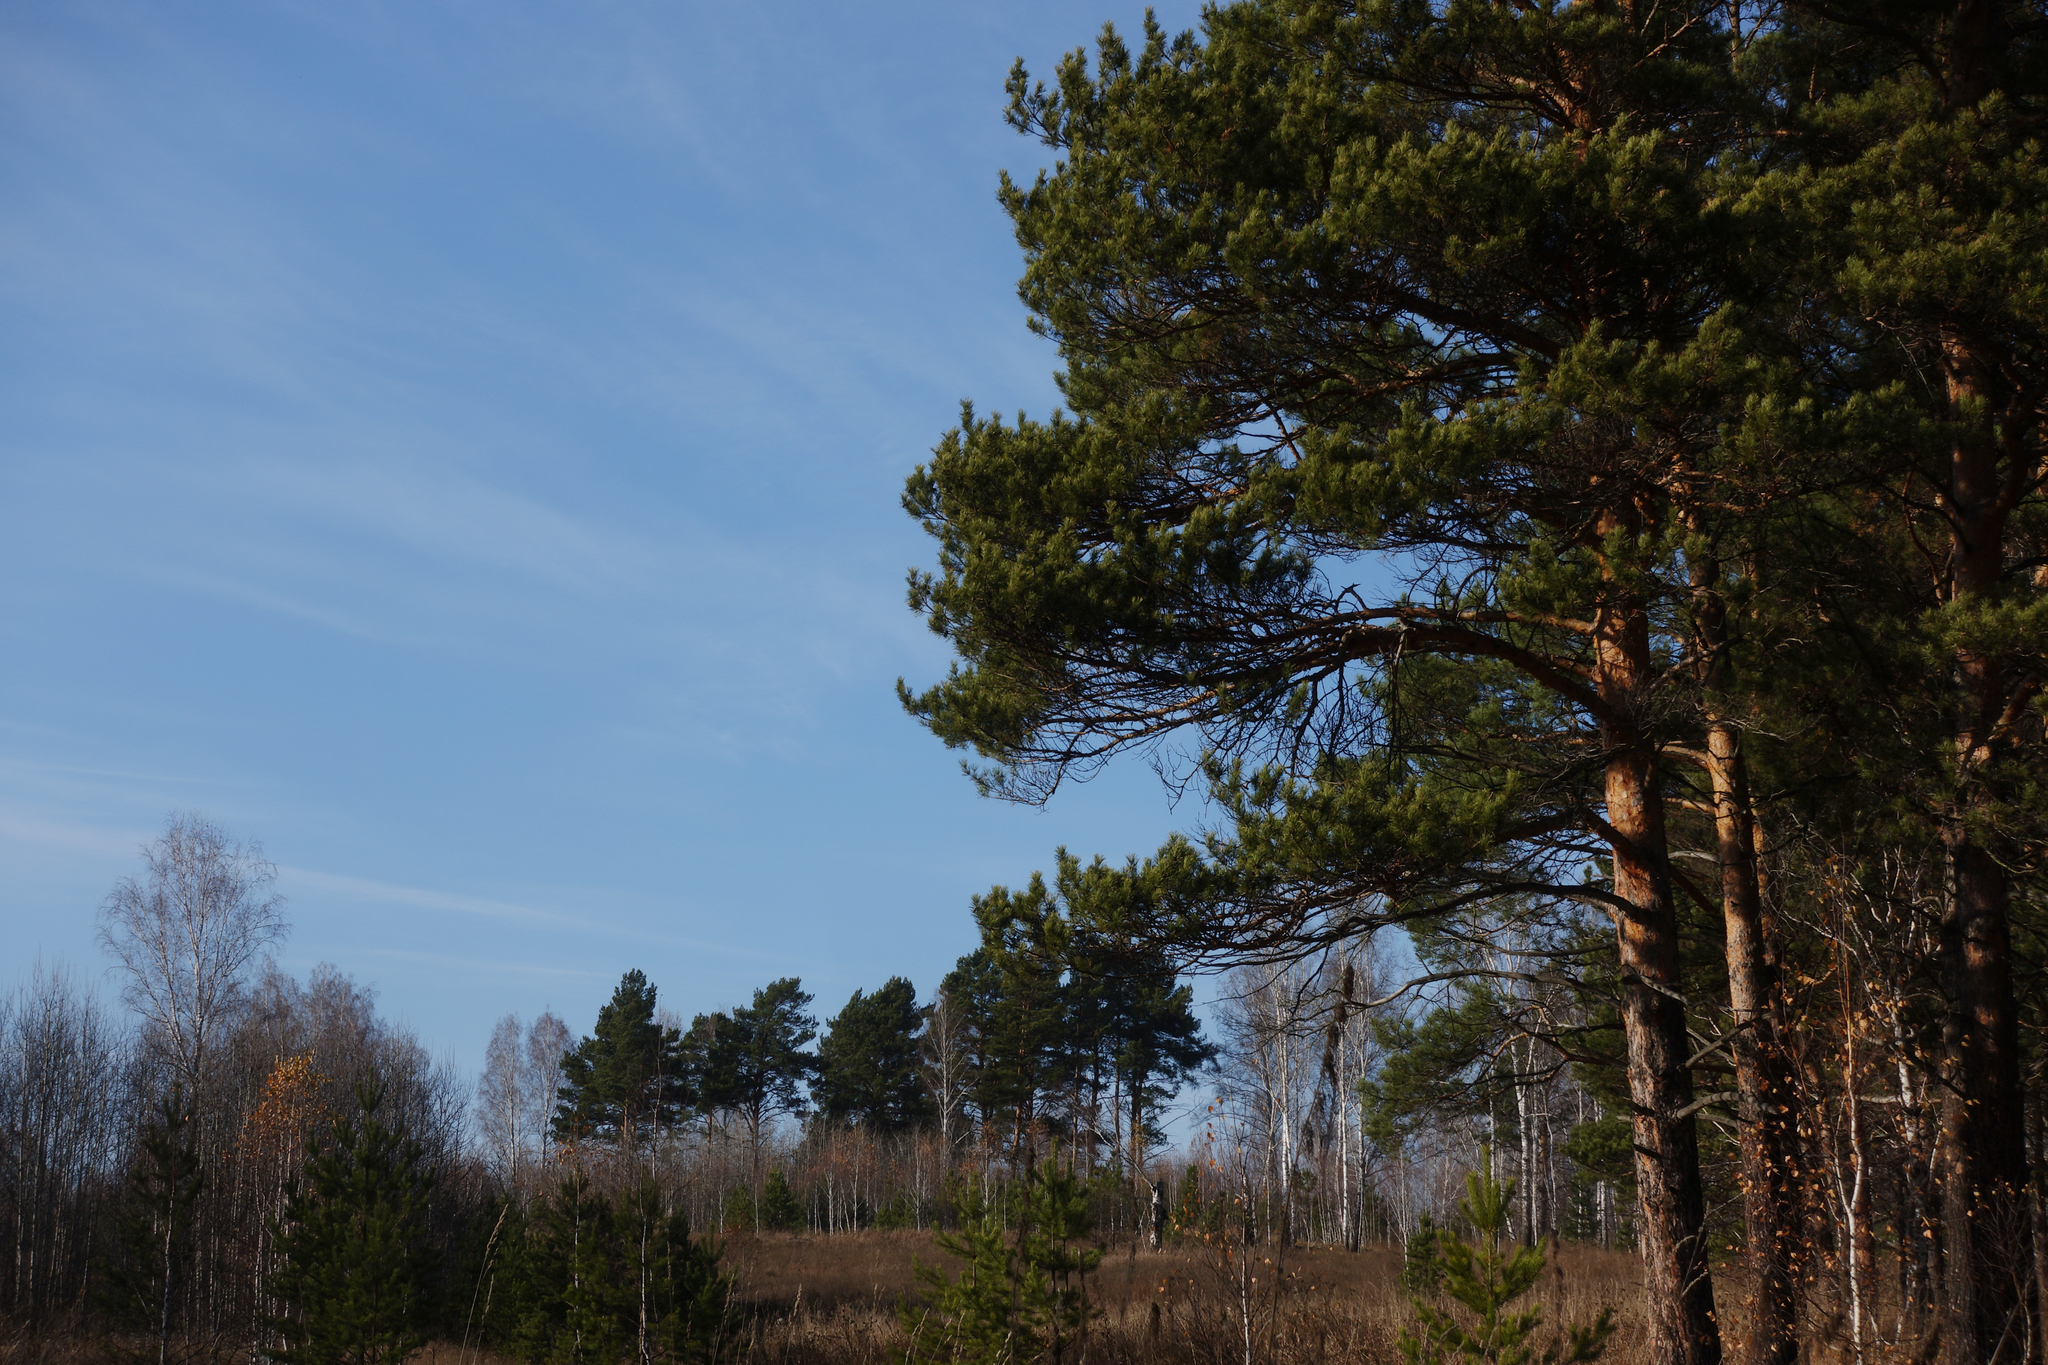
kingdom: Plantae
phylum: Tracheophyta
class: Pinopsida
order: Pinales
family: Pinaceae
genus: Pinus
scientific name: Pinus sylvestris
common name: Scots pine
